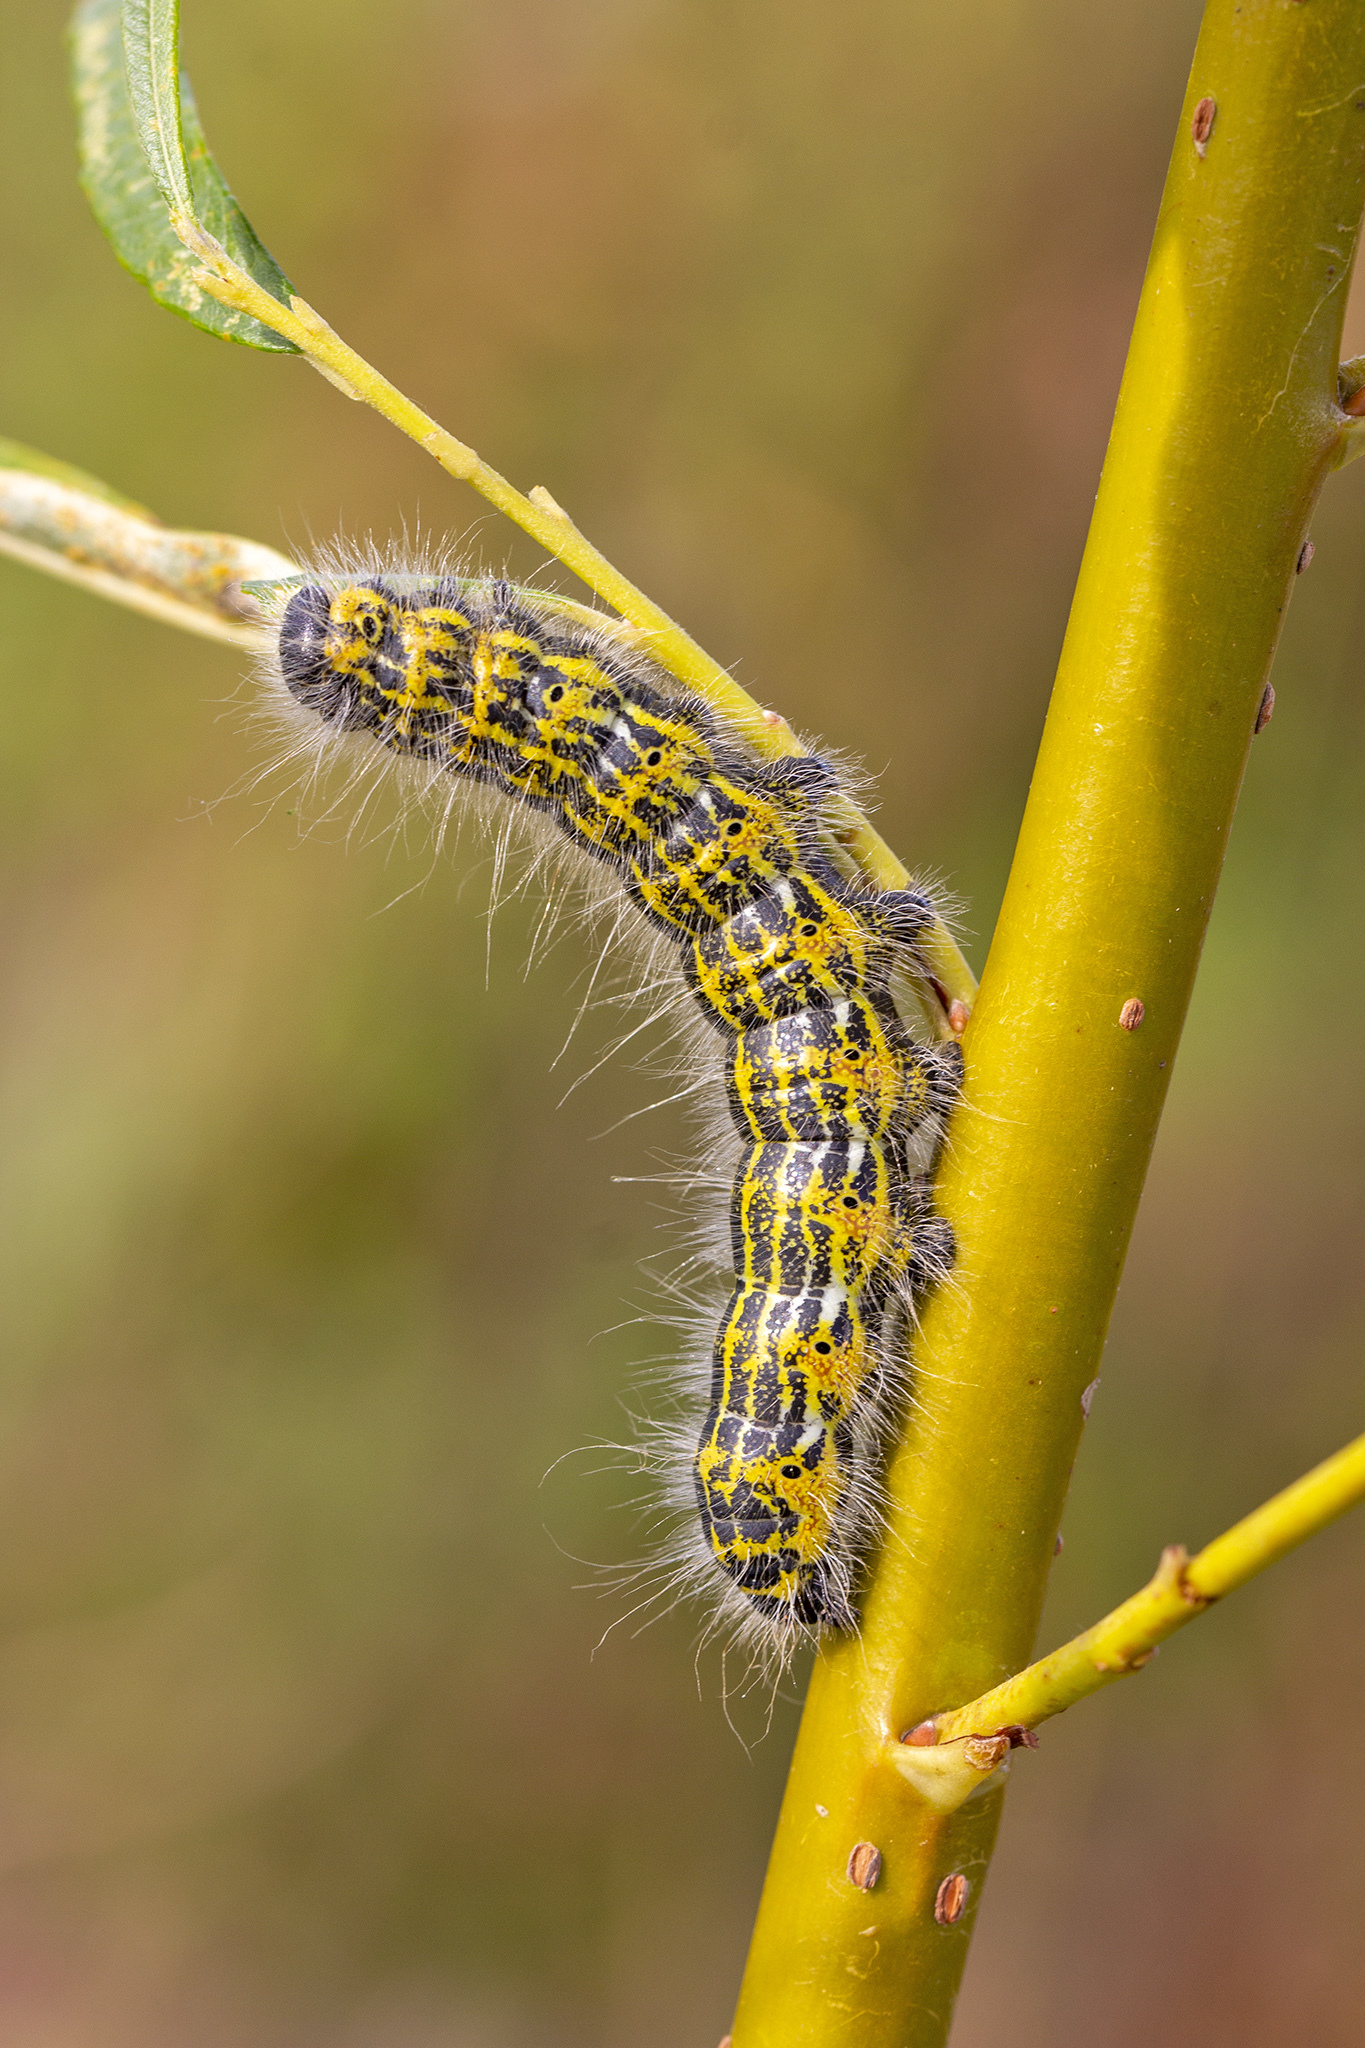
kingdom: Animalia
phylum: Arthropoda
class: Insecta
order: Lepidoptera
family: Notodontidae
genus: Phalera
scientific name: Phalera bucephala
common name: Buff-tip
